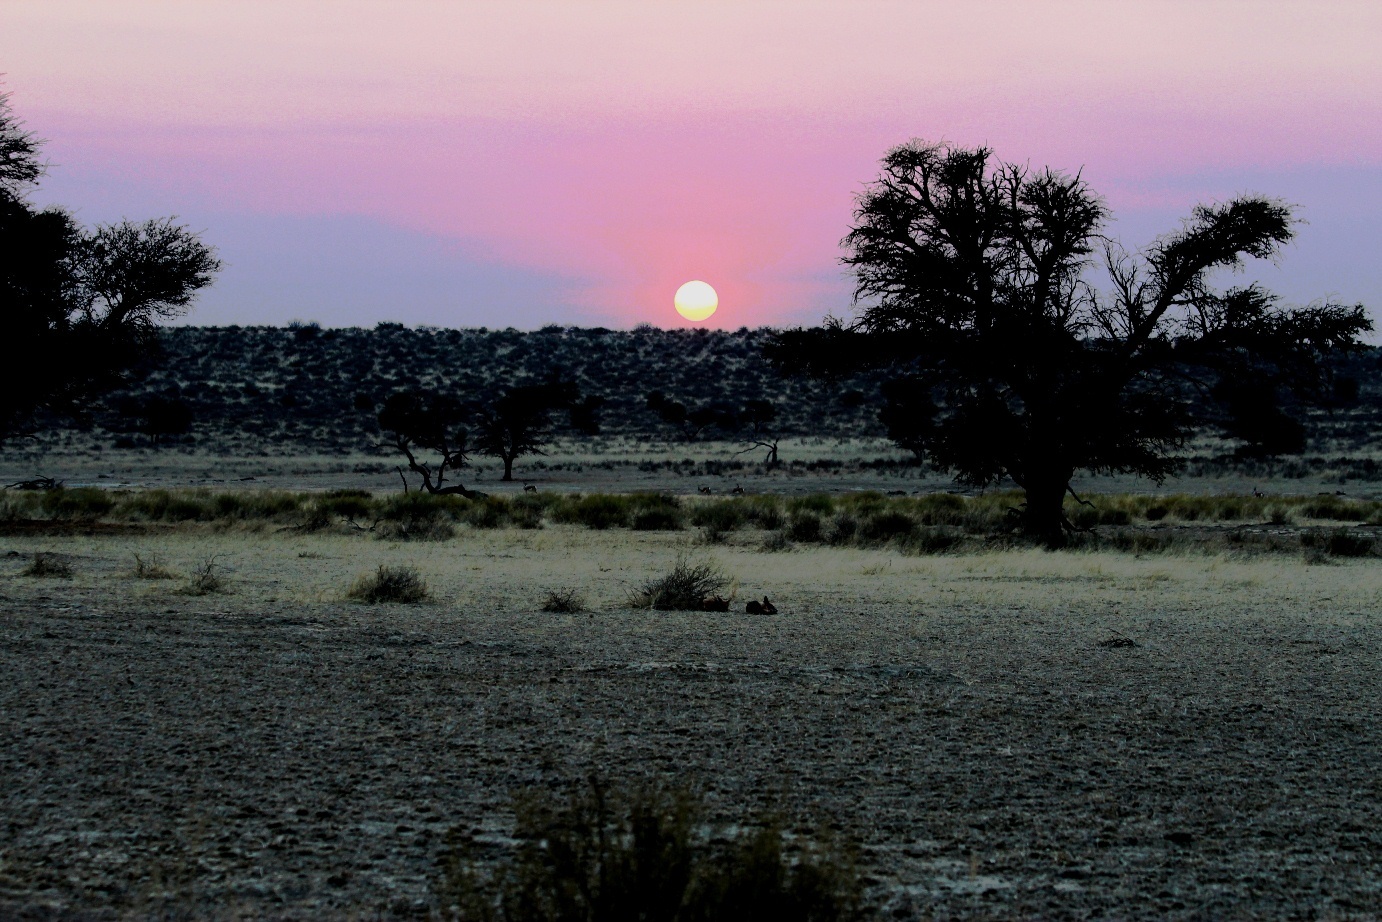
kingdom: Animalia
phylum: Chordata
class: Mammalia
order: Carnivora
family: Canidae
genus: Lupulella
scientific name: Lupulella
